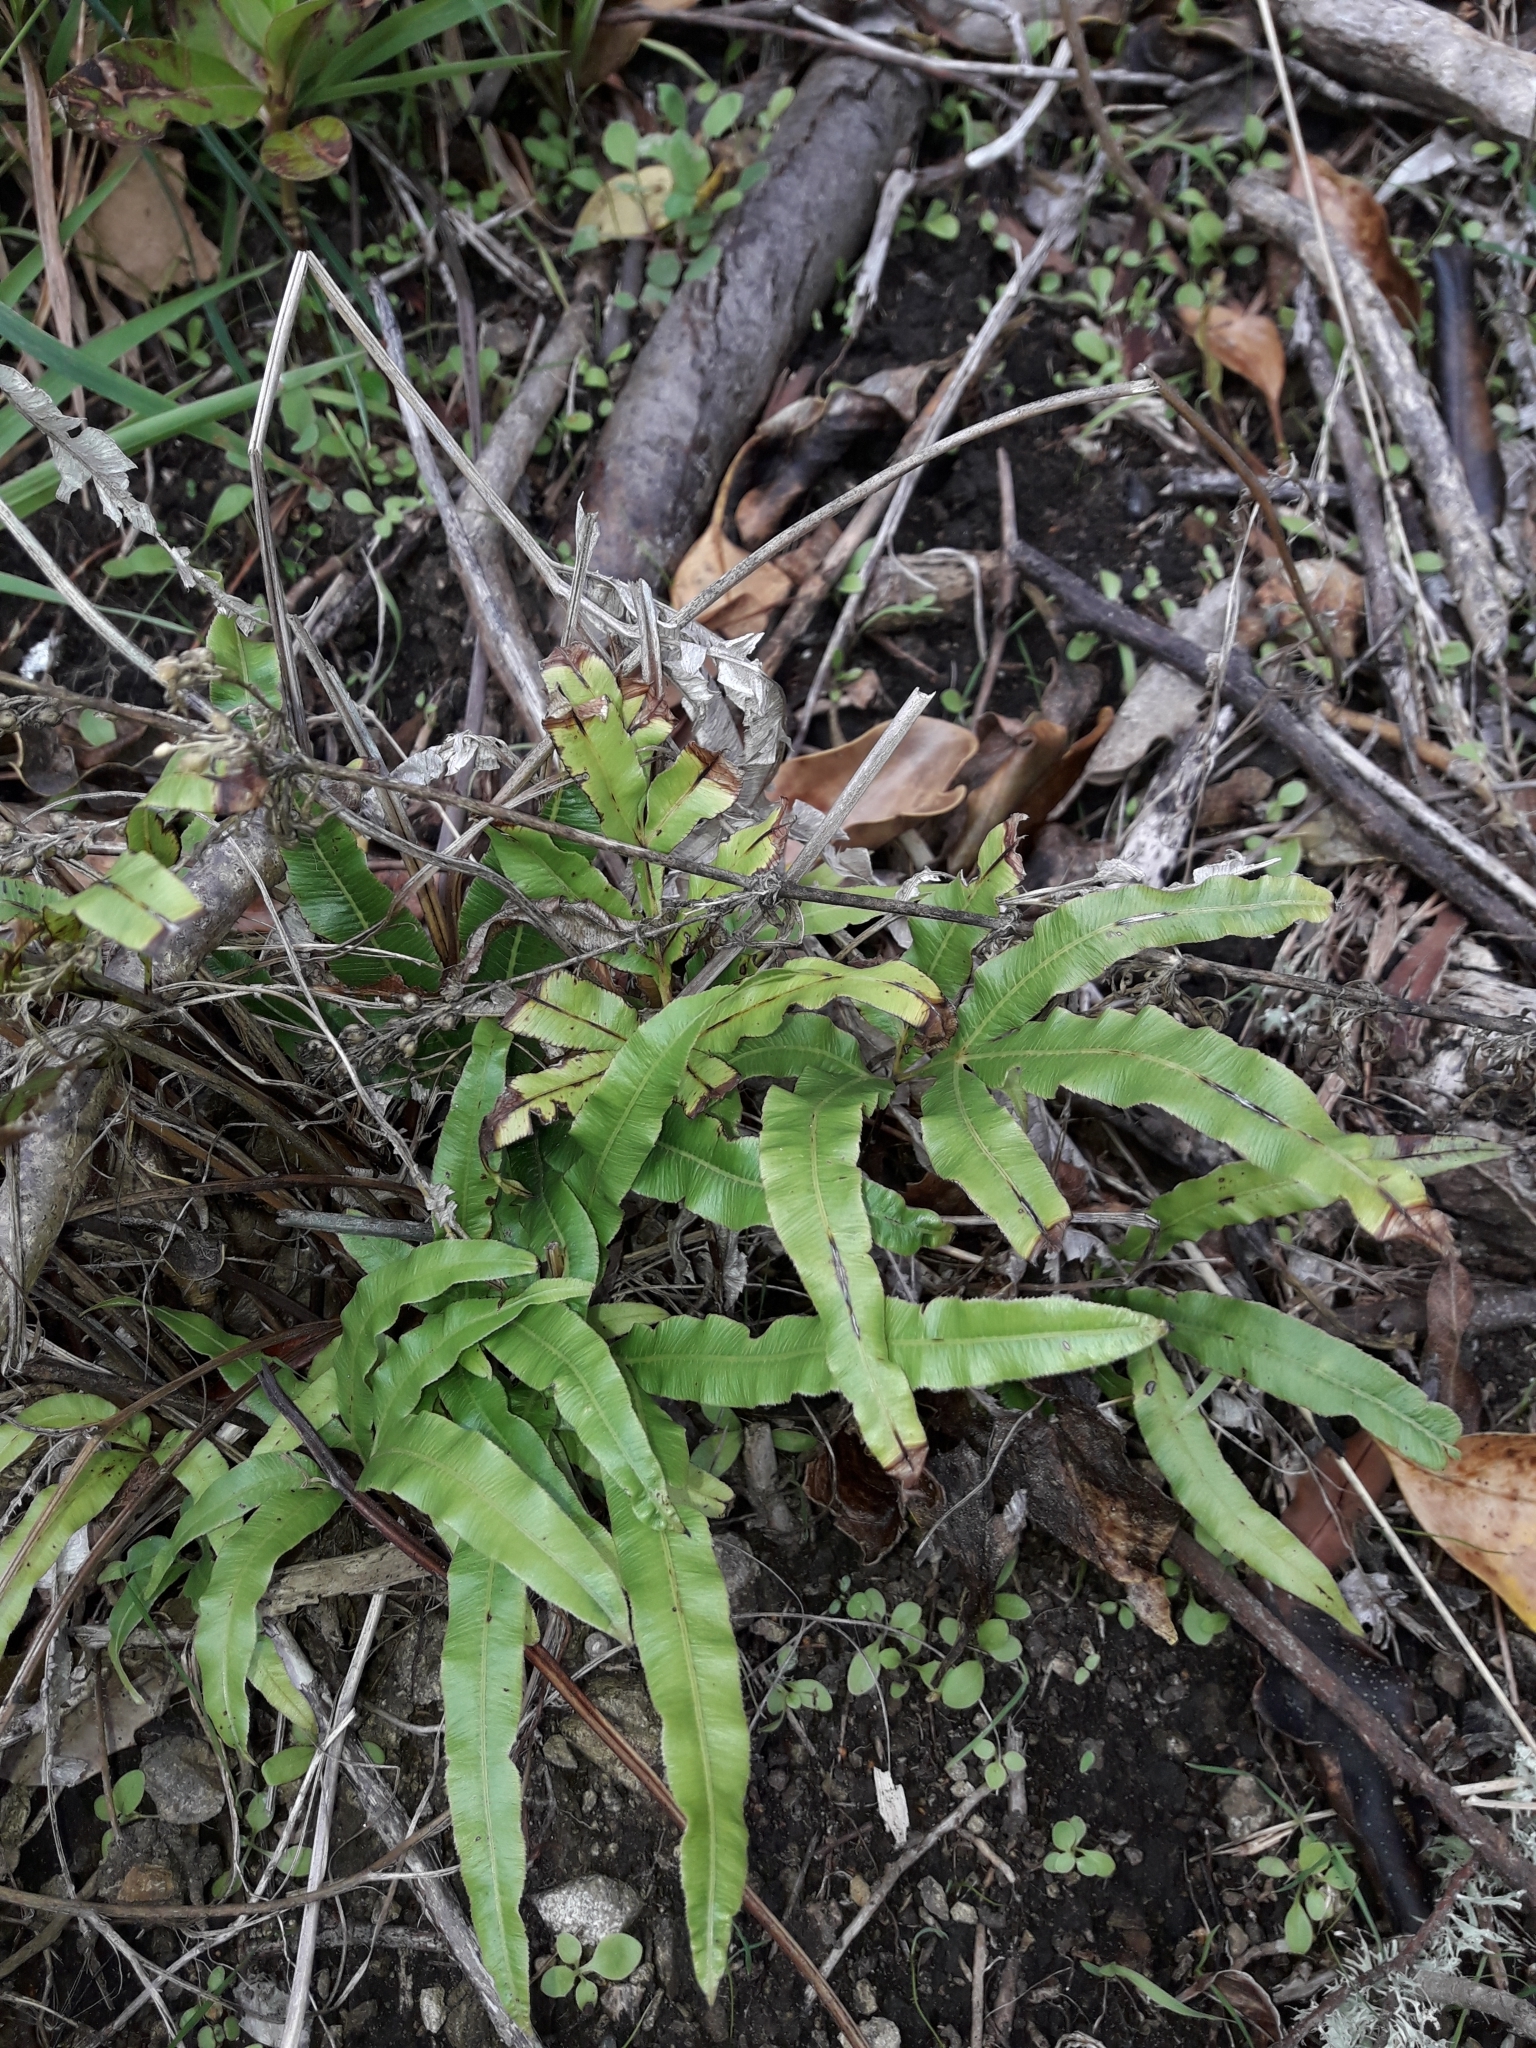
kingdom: Plantae
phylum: Tracheophyta
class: Polypodiopsida
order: Polypodiales
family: Pteridaceae
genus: Pteris
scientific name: Pteris cretica
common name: Ribbon fern
